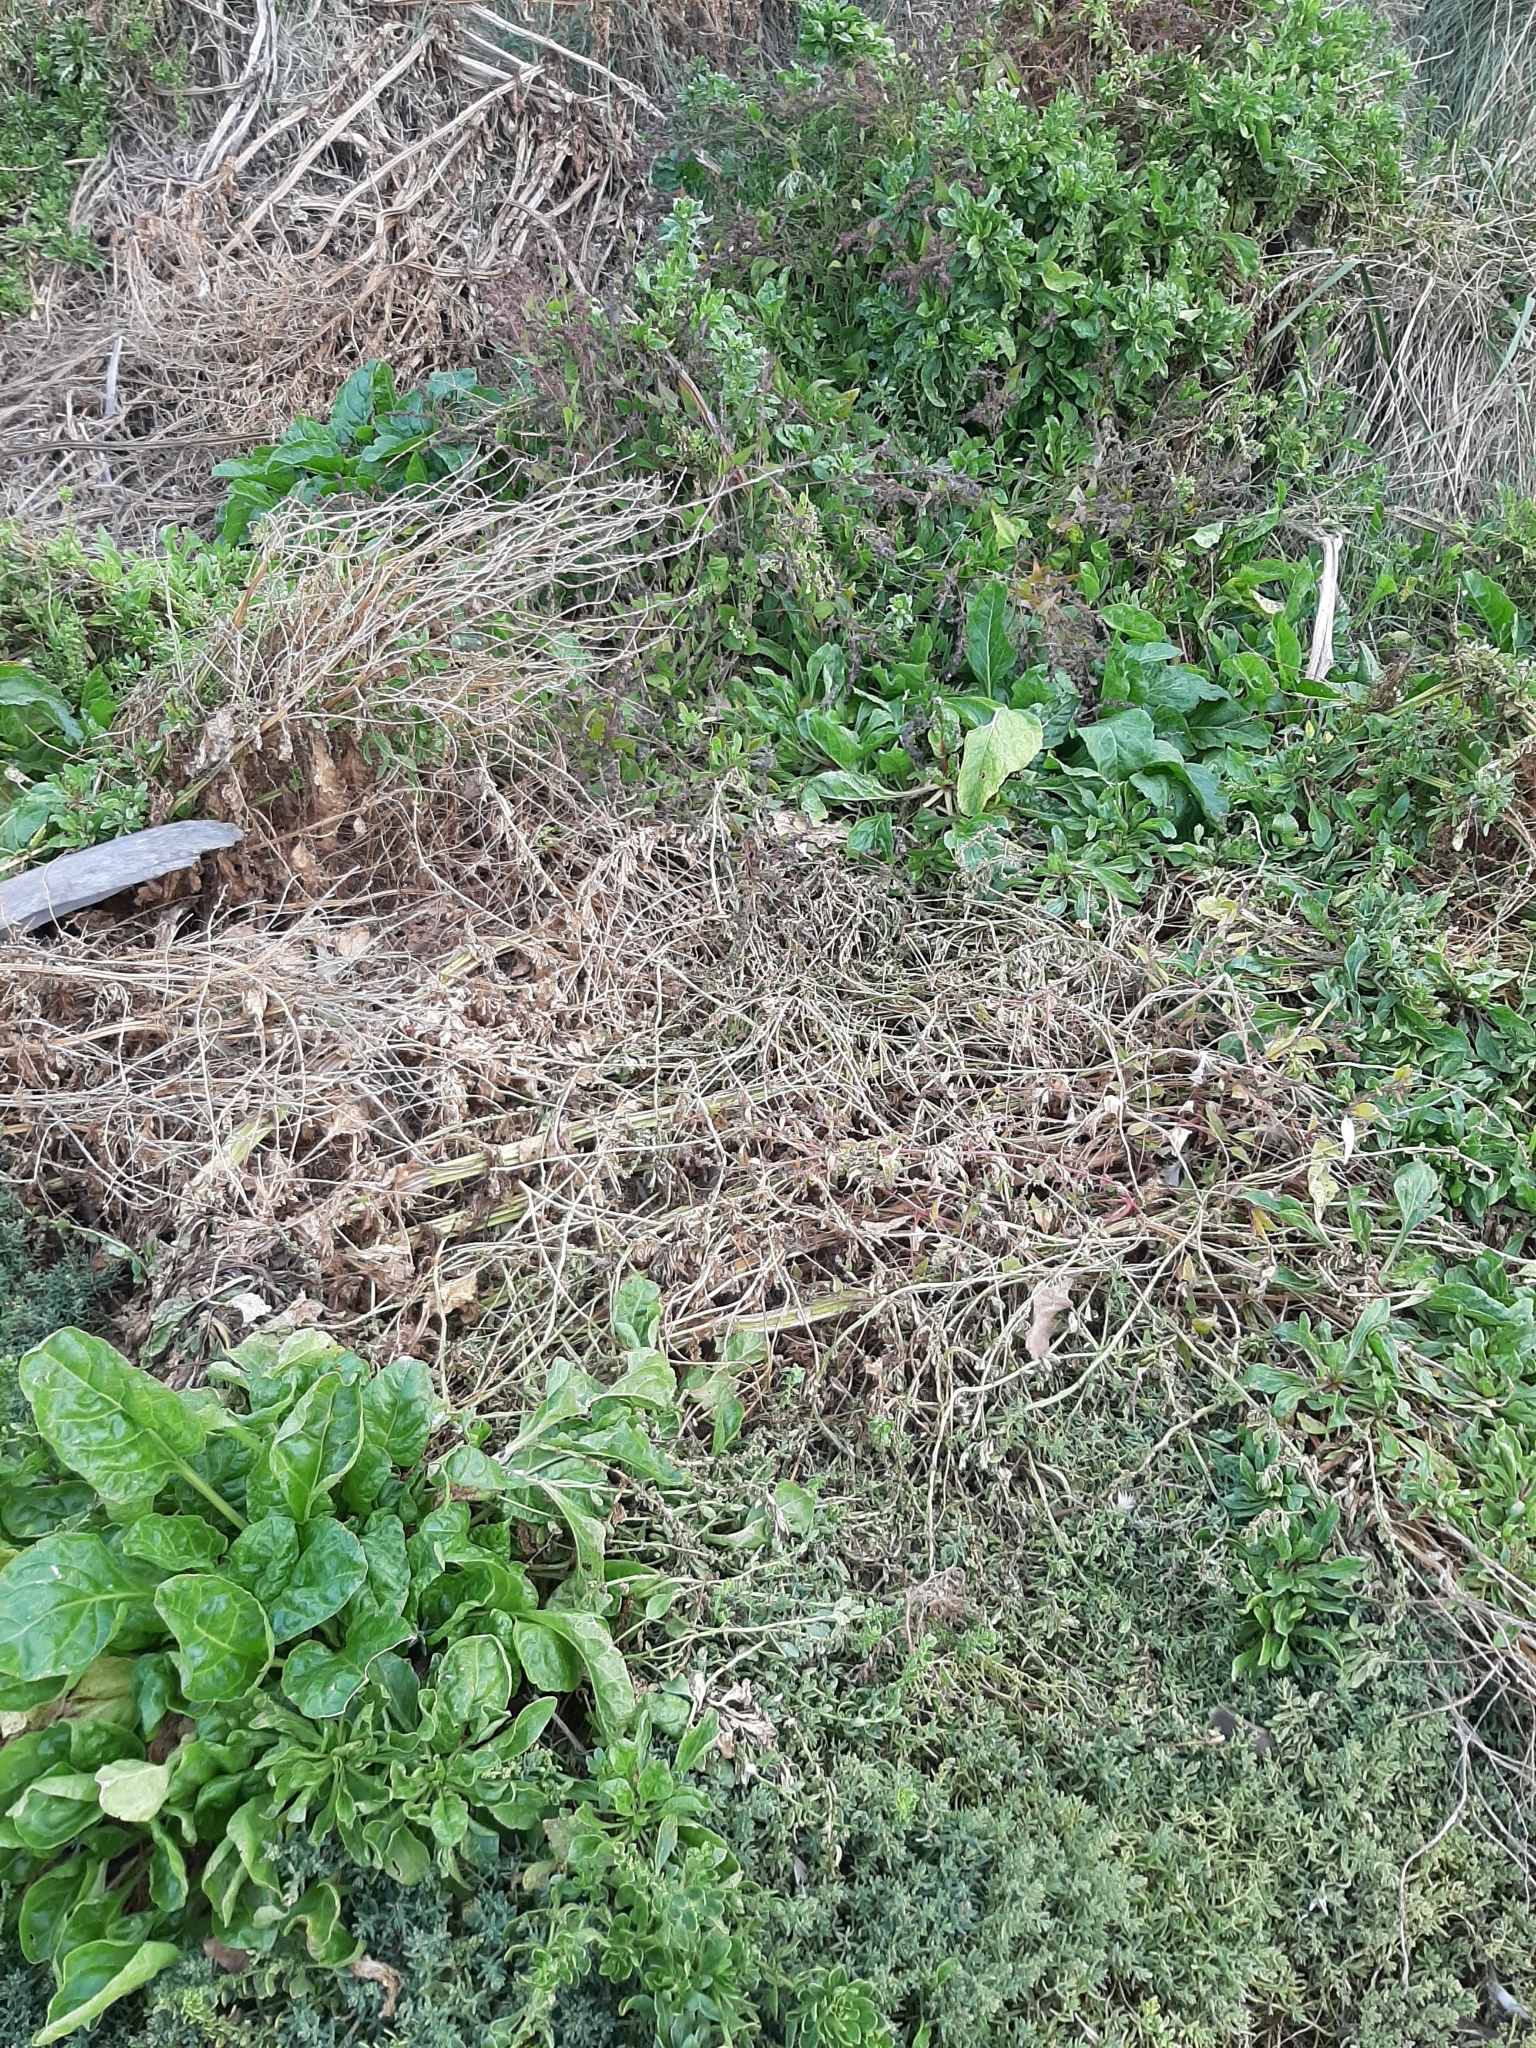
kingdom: Plantae
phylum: Tracheophyta
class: Magnoliopsida
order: Caryophyllales
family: Amaranthaceae
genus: Beta
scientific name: Beta vulgaris
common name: Beet
